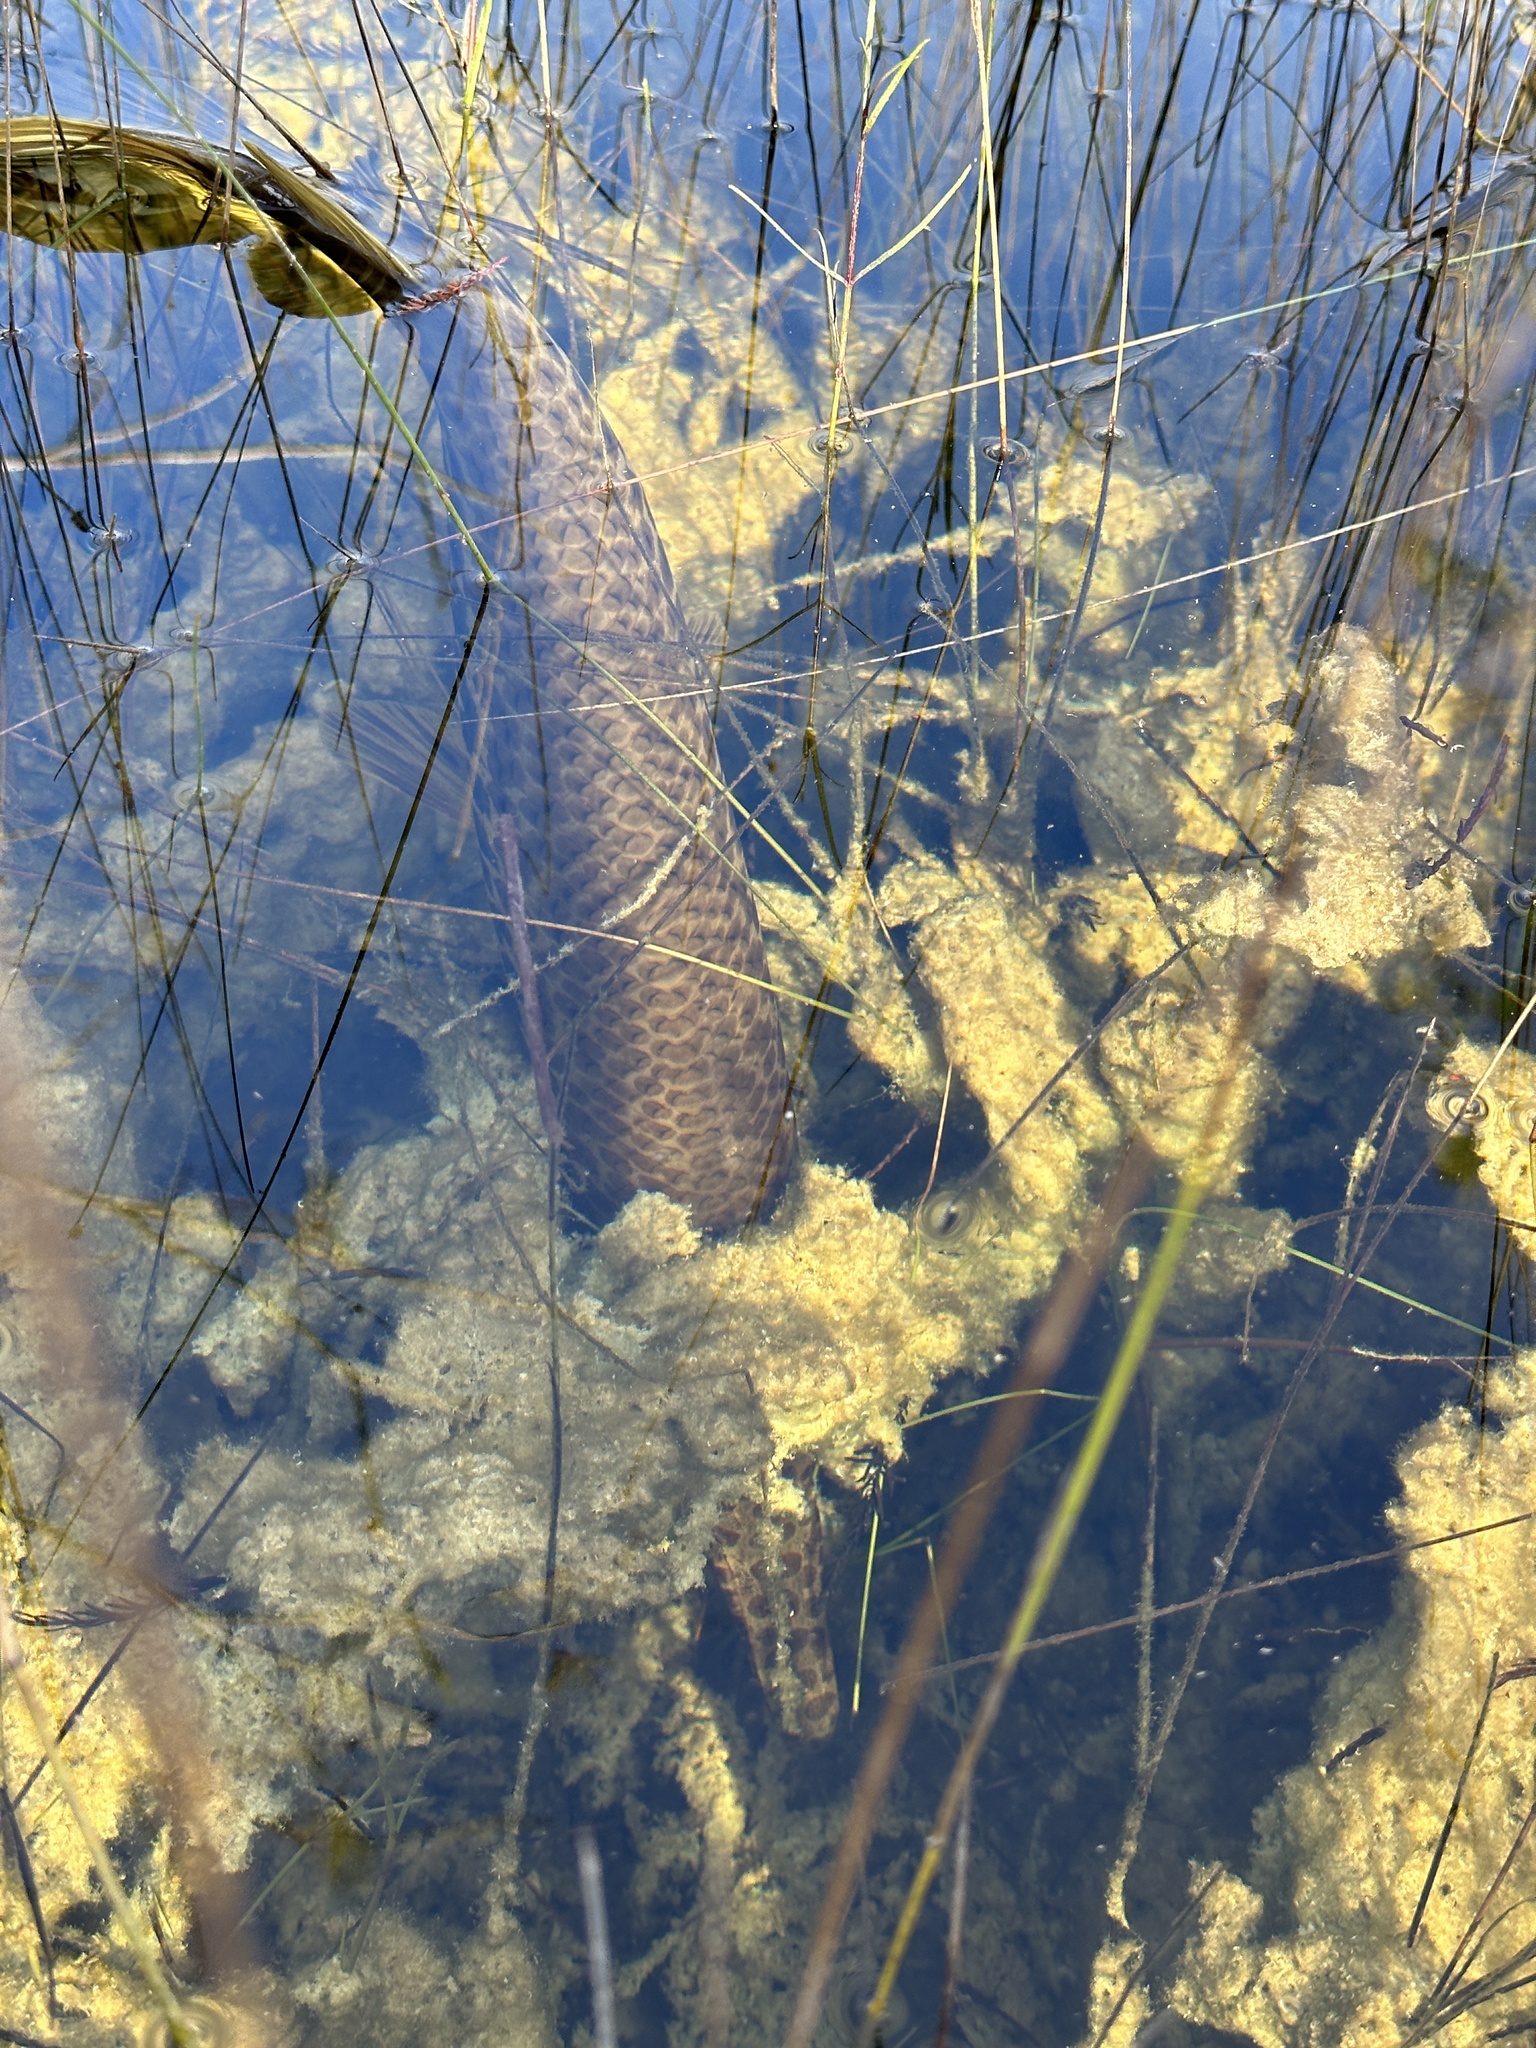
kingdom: Animalia
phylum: Chordata
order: Lepisosteiformes
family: Lepisosteidae
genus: Lepisosteus
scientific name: Lepisosteus platyrhincus
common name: Florida gar
